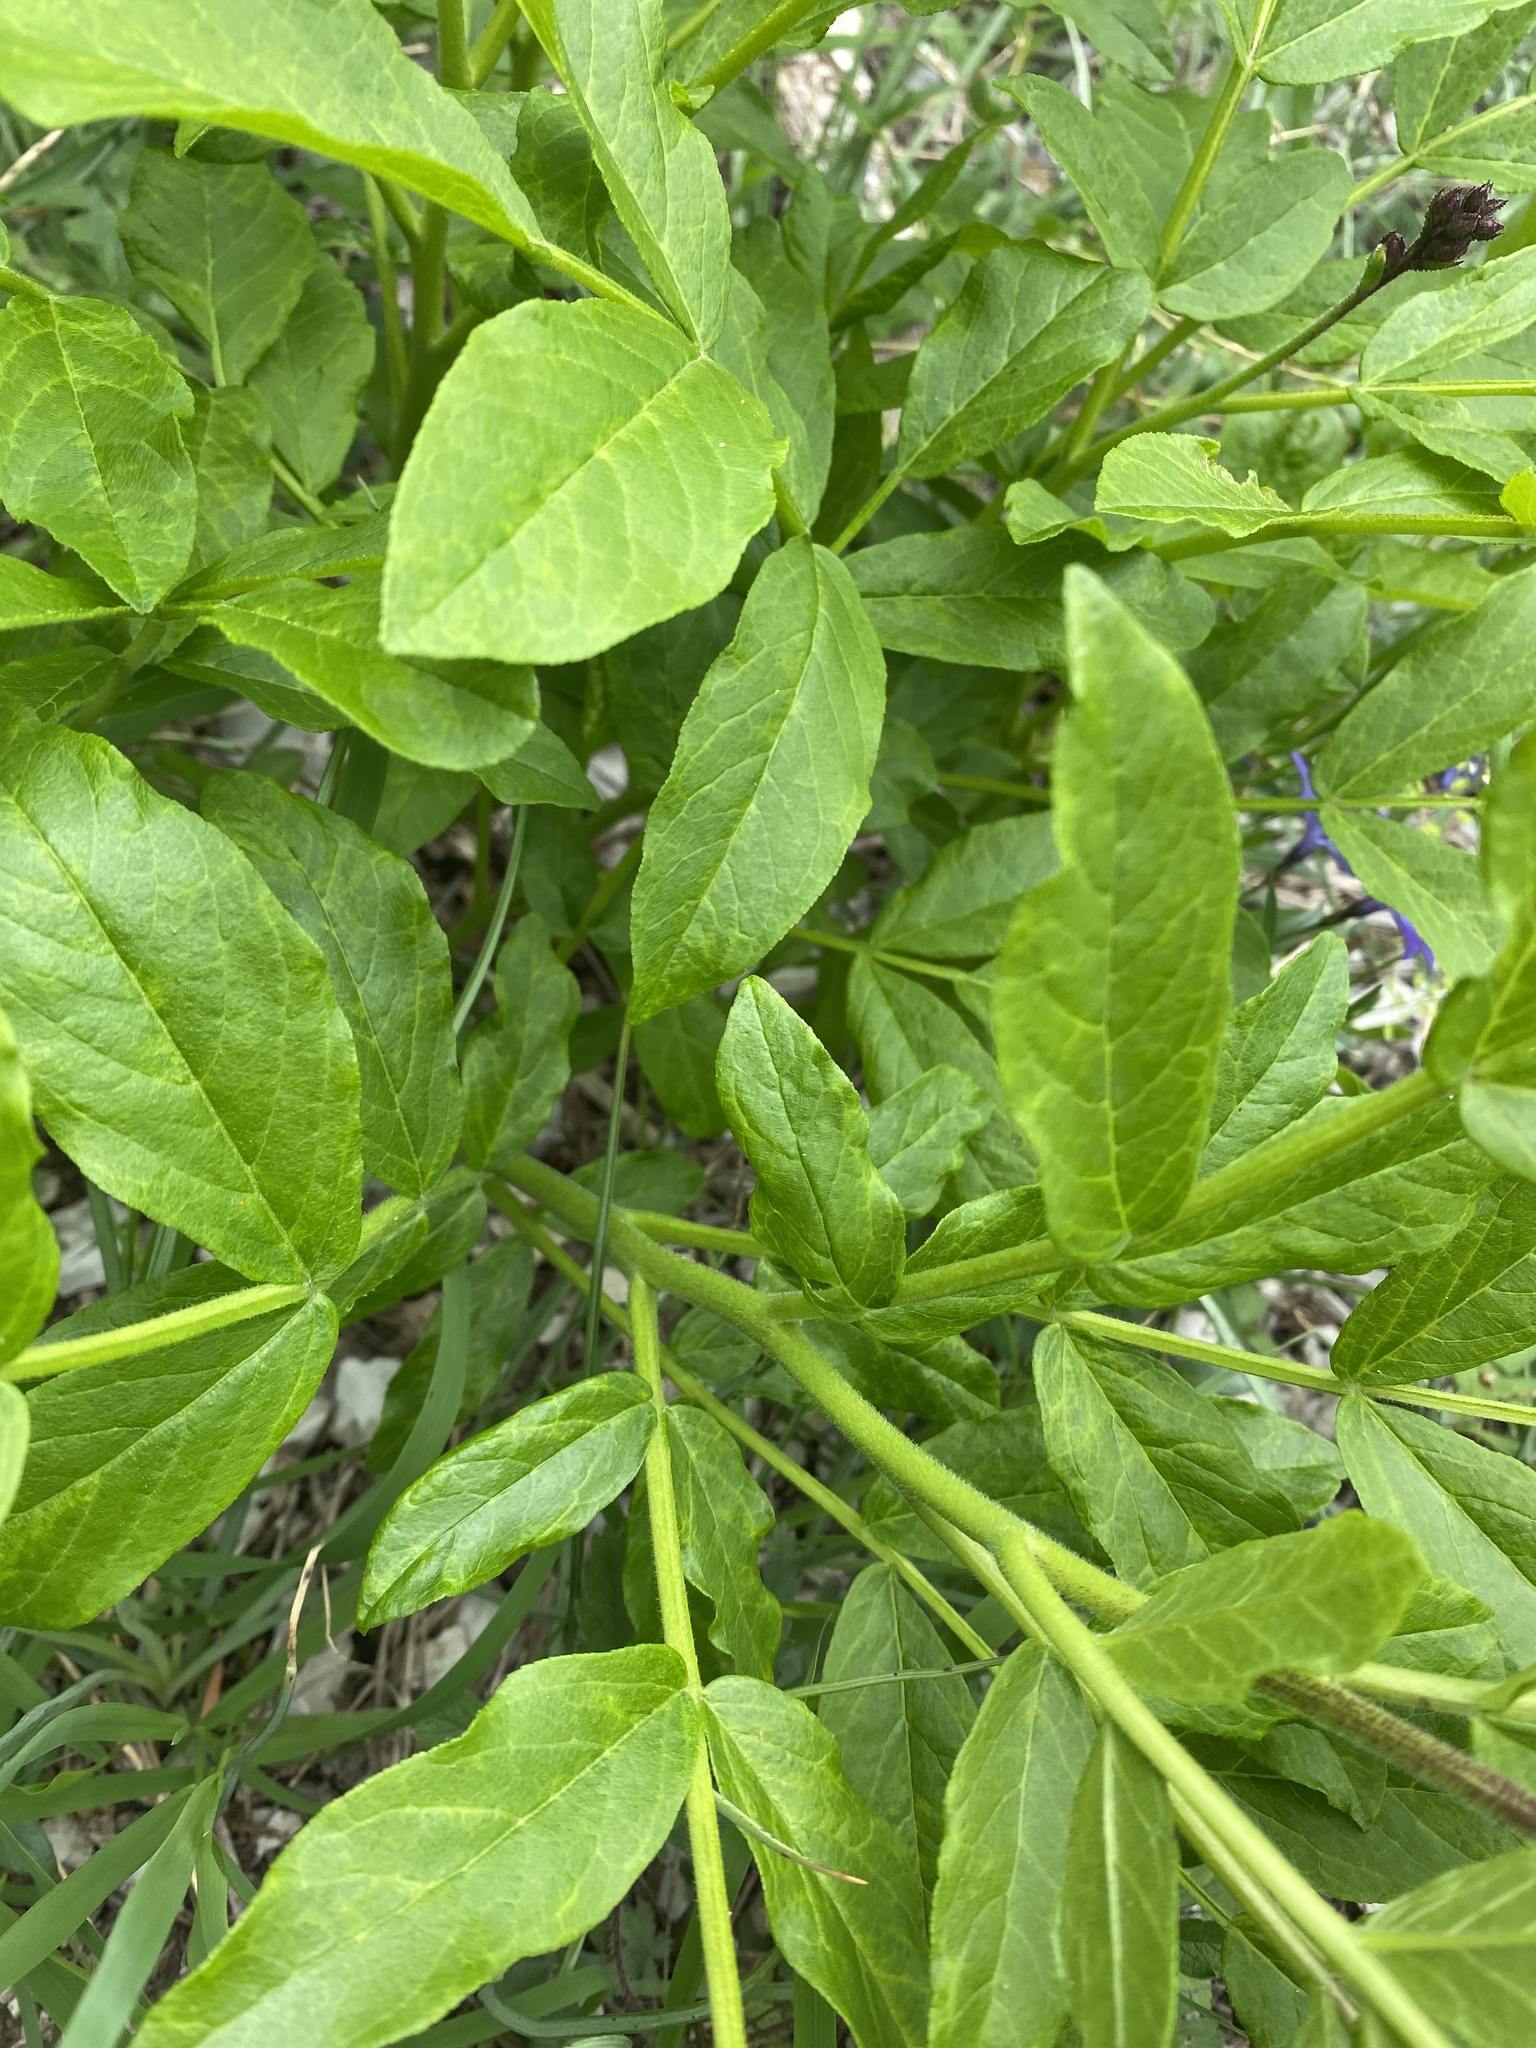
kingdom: Plantae
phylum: Tracheophyta
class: Magnoliopsida
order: Sapindales
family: Rutaceae
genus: Dictamnus
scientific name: Dictamnus albus
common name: Gasplant
